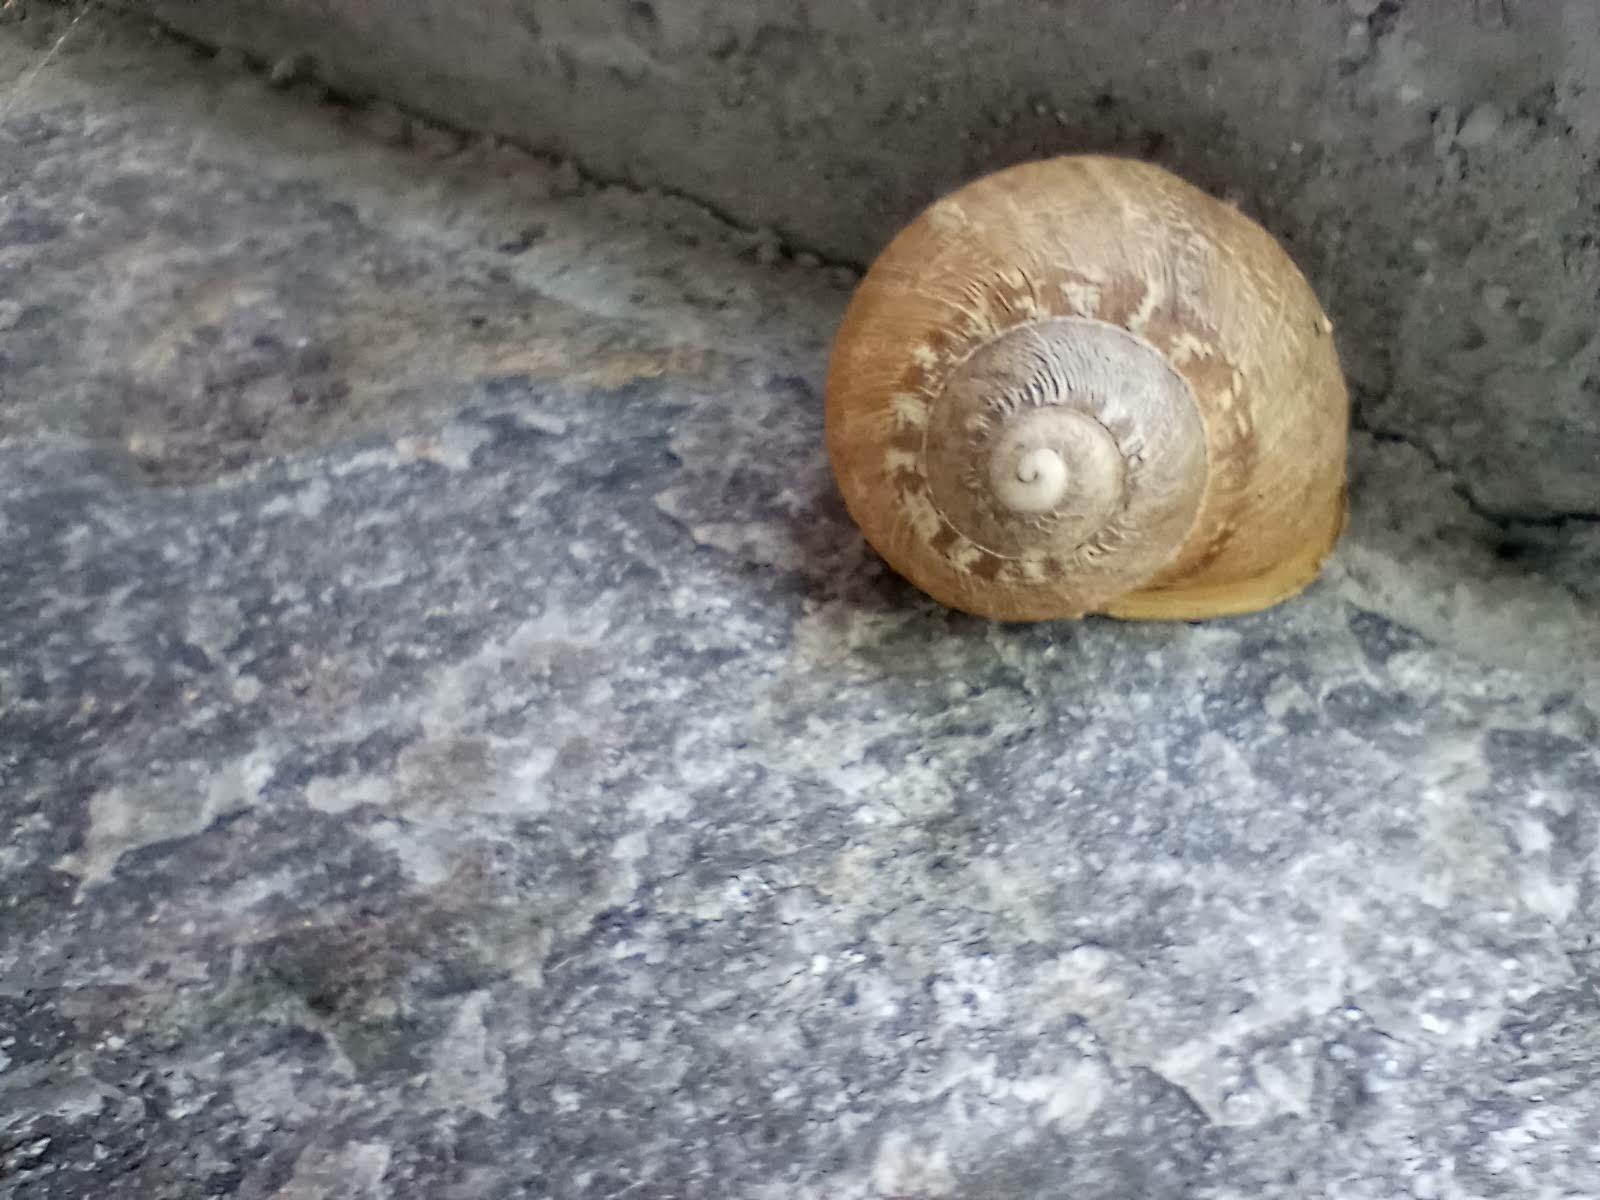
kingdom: Animalia
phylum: Mollusca
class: Gastropoda
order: Stylommatophora
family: Helicidae
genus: Cornu
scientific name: Cornu aspersum
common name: Brown garden snail
